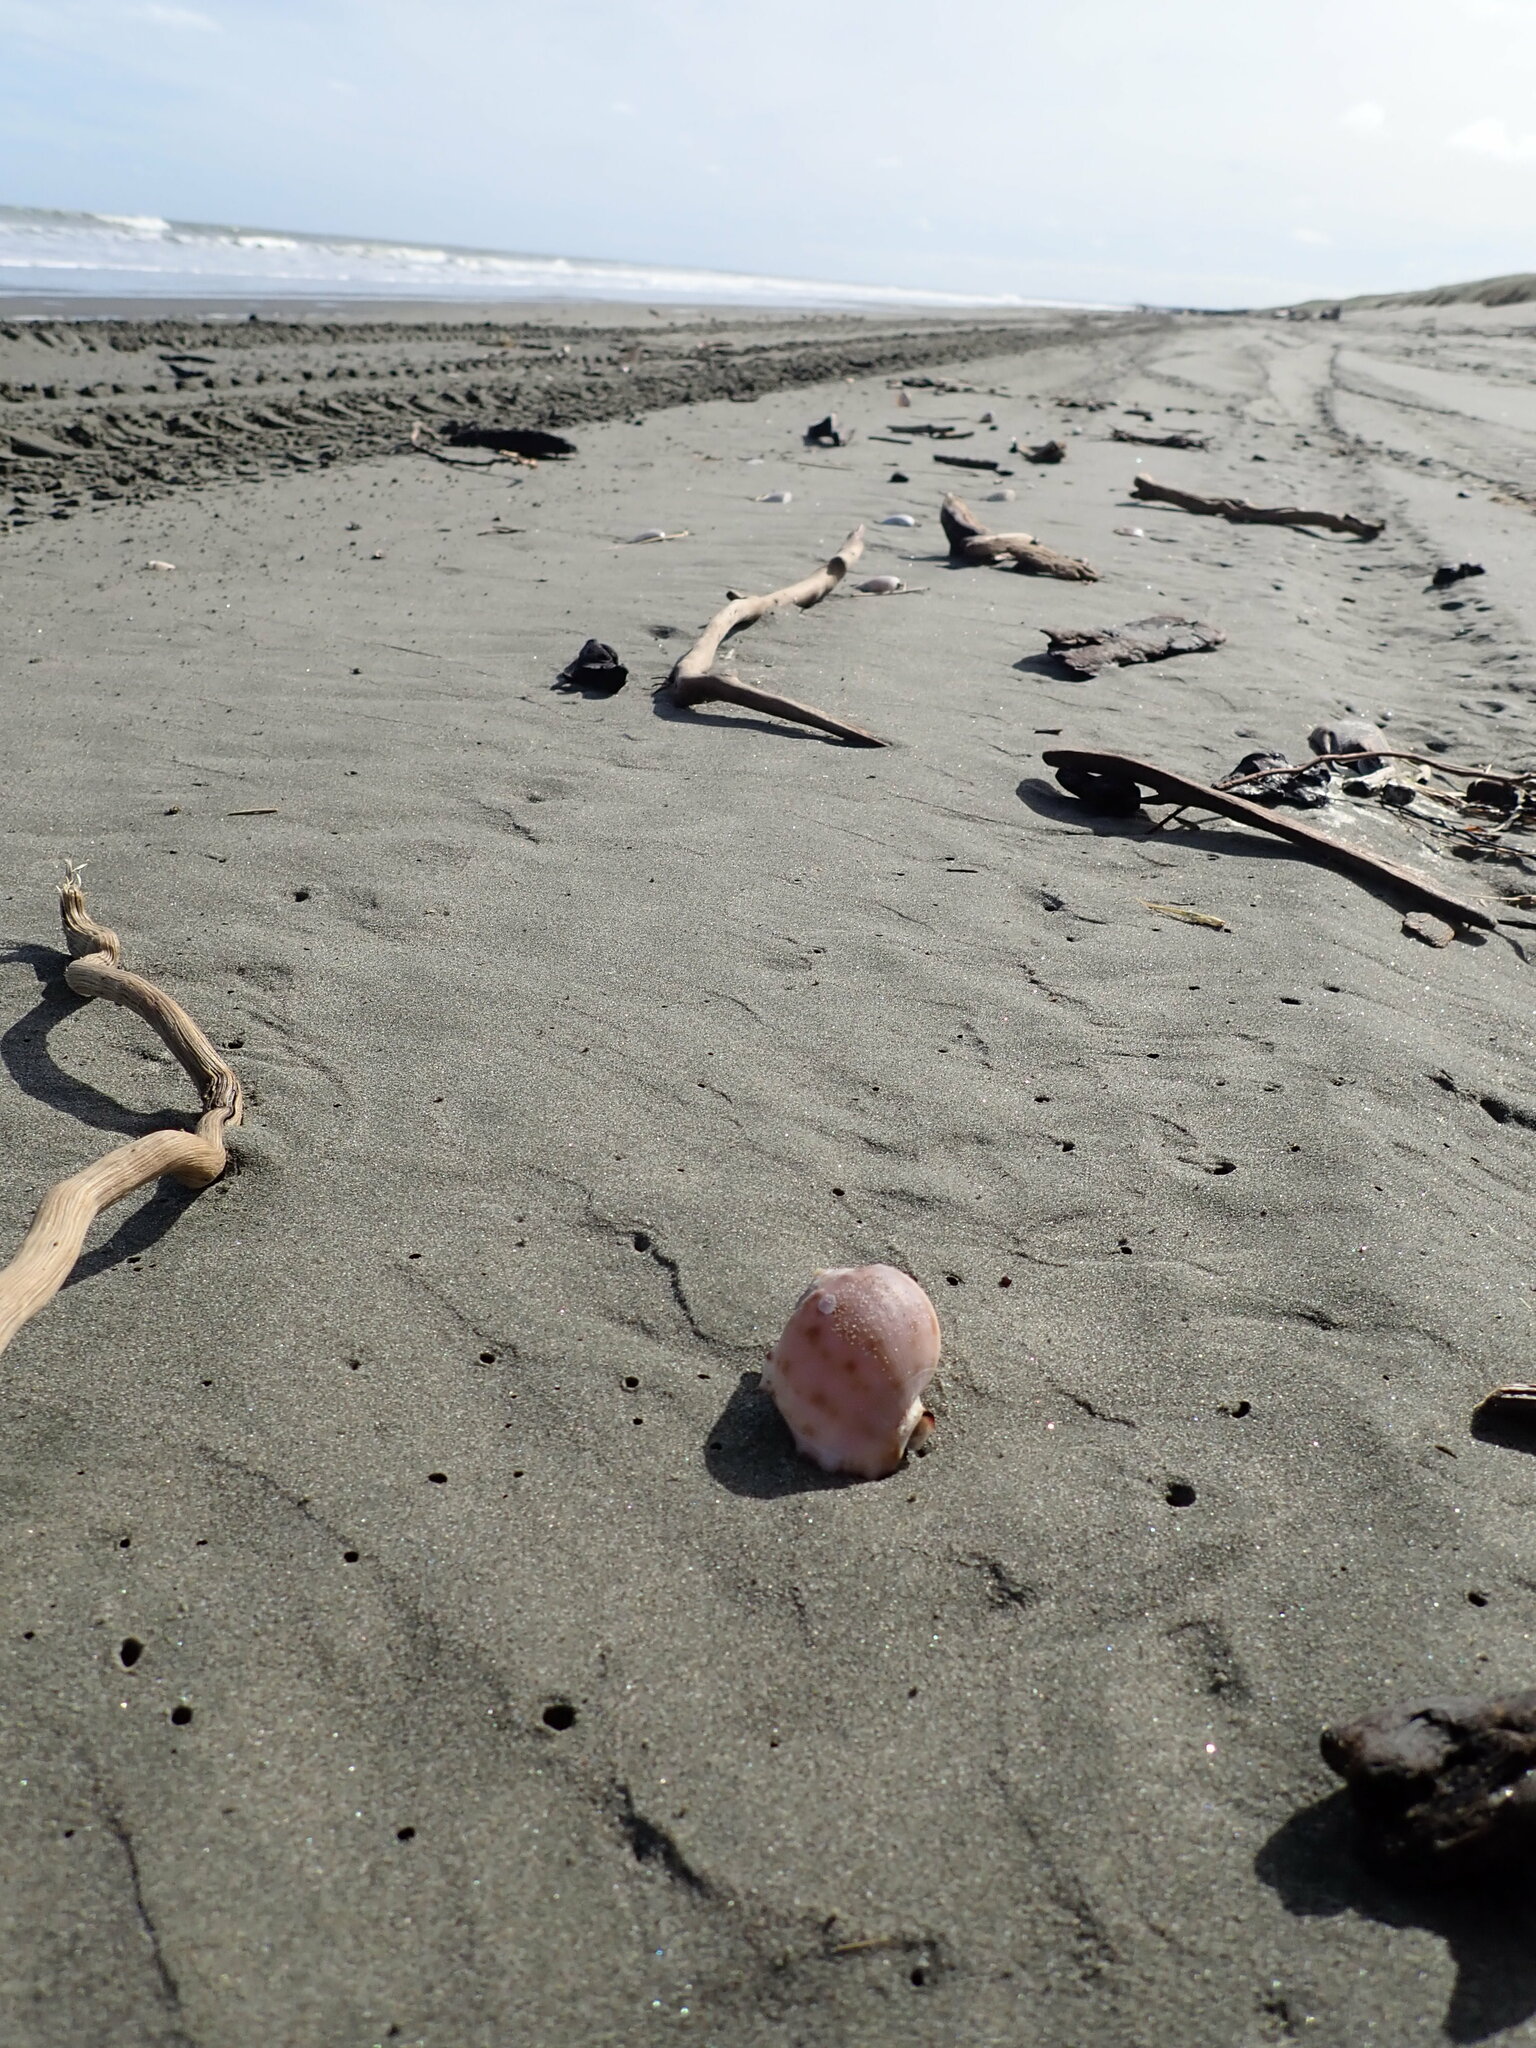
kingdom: Animalia
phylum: Mollusca
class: Gastropoda
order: Littorinimorpha
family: Cassidae
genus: Semicassis
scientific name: Semicassis pyrum
